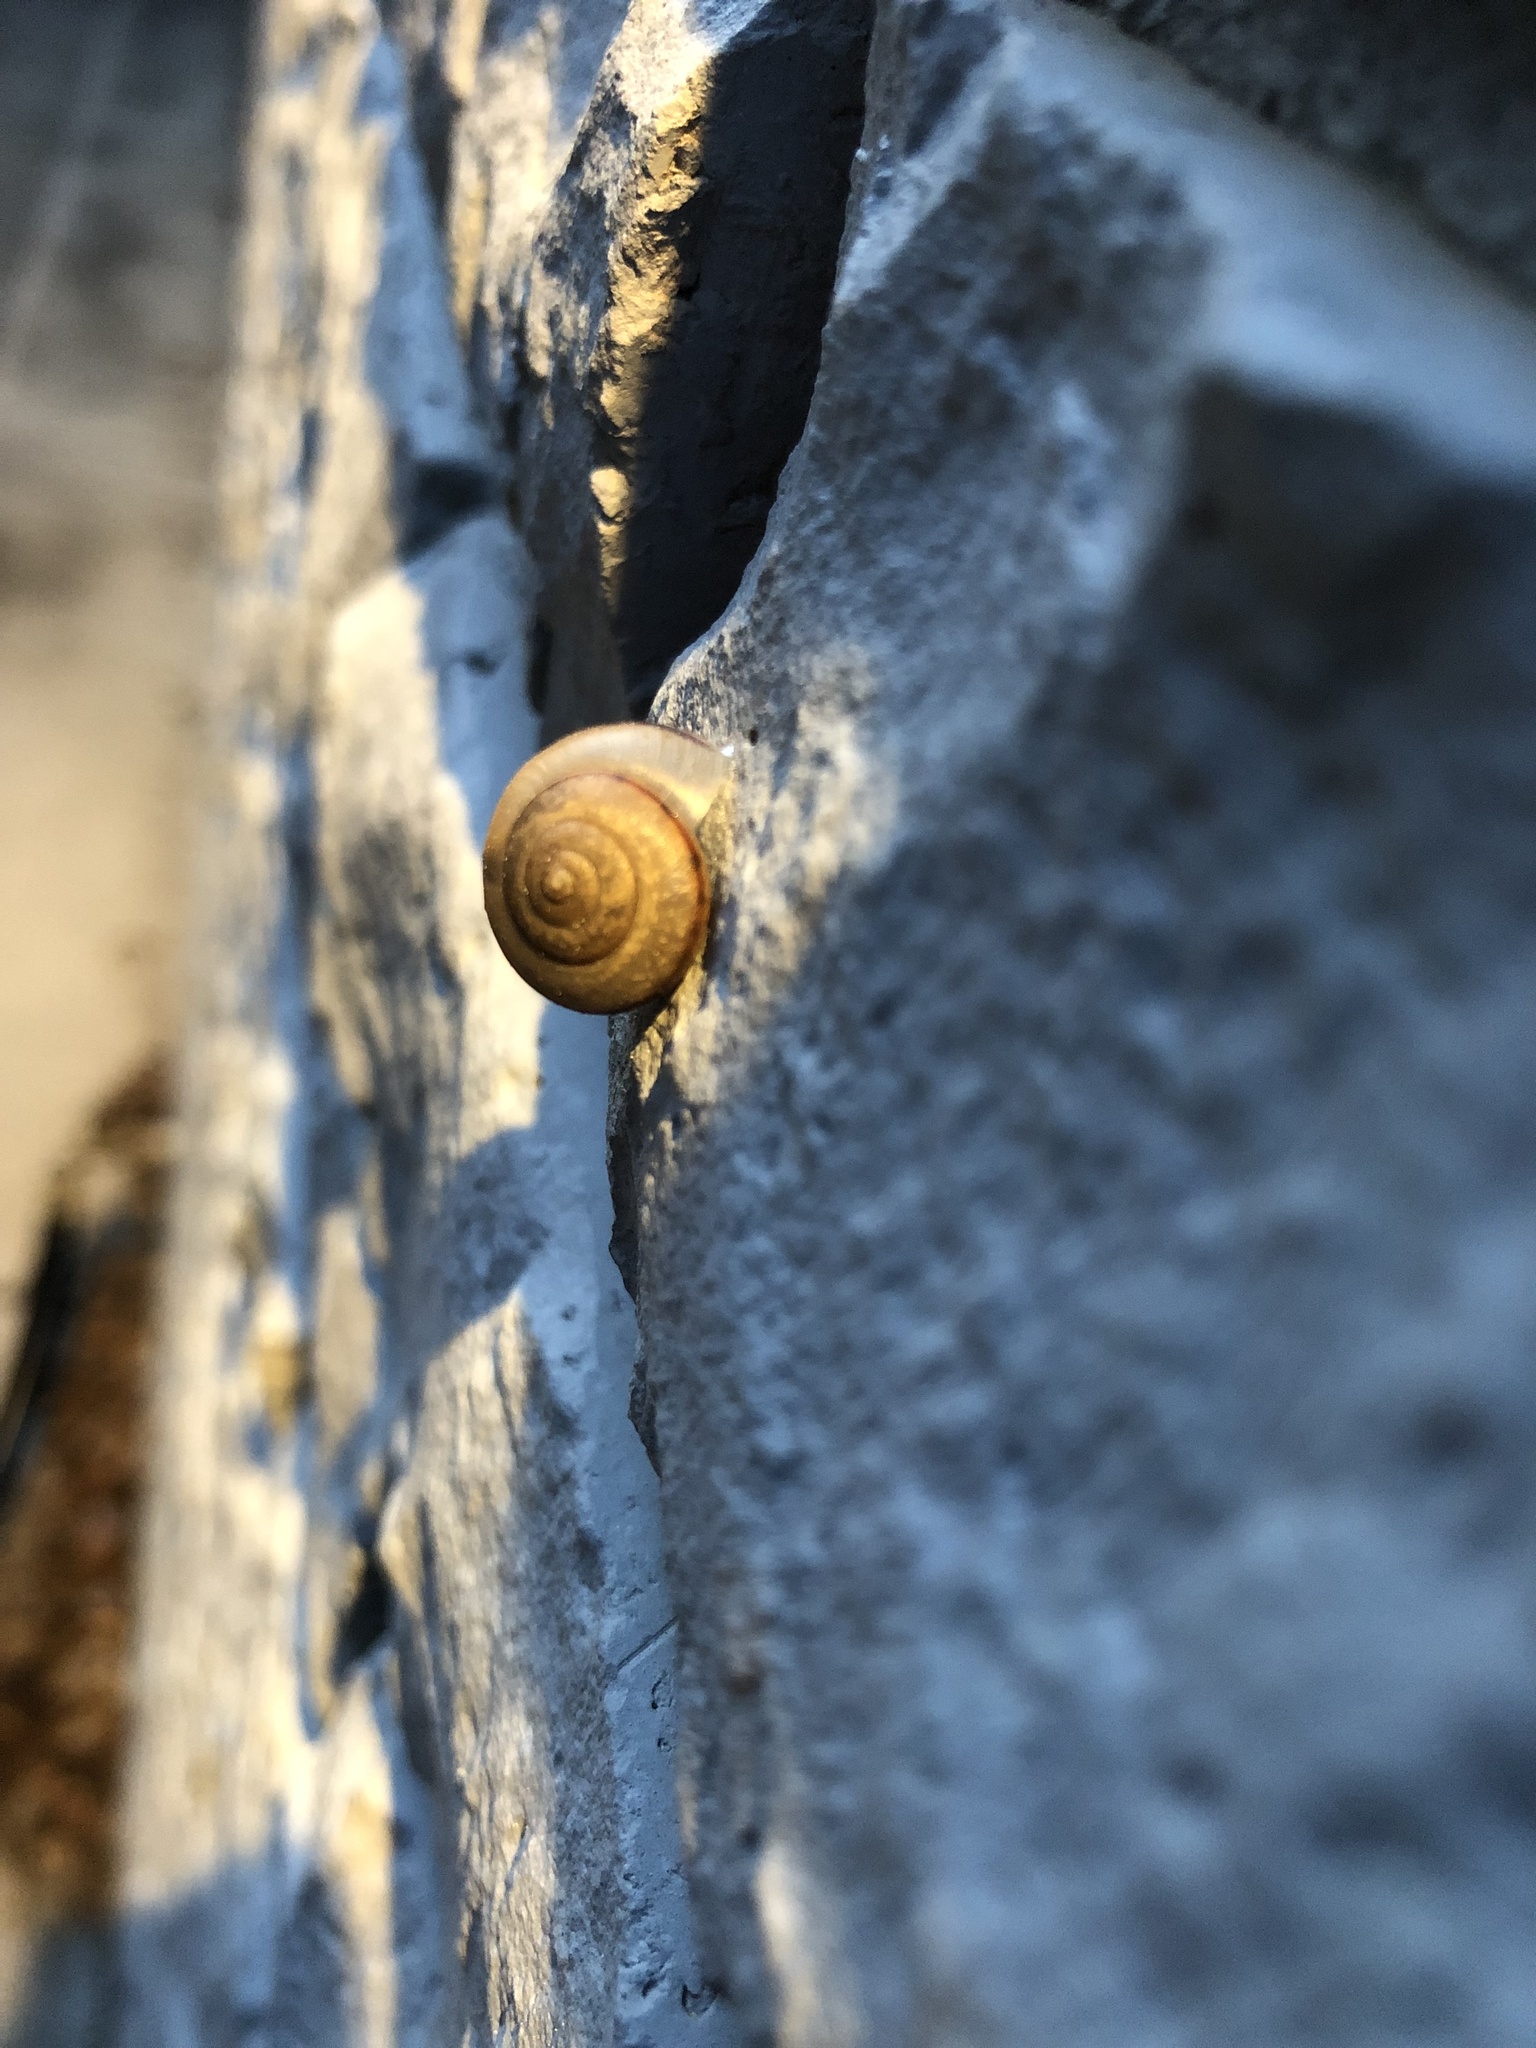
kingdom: Animalia
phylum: Mollusca
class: Gastropoda
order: Stylommatophora
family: Camaenidae
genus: Bradybaena
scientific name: Bradybaena similaris
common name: Asian trampsnail
